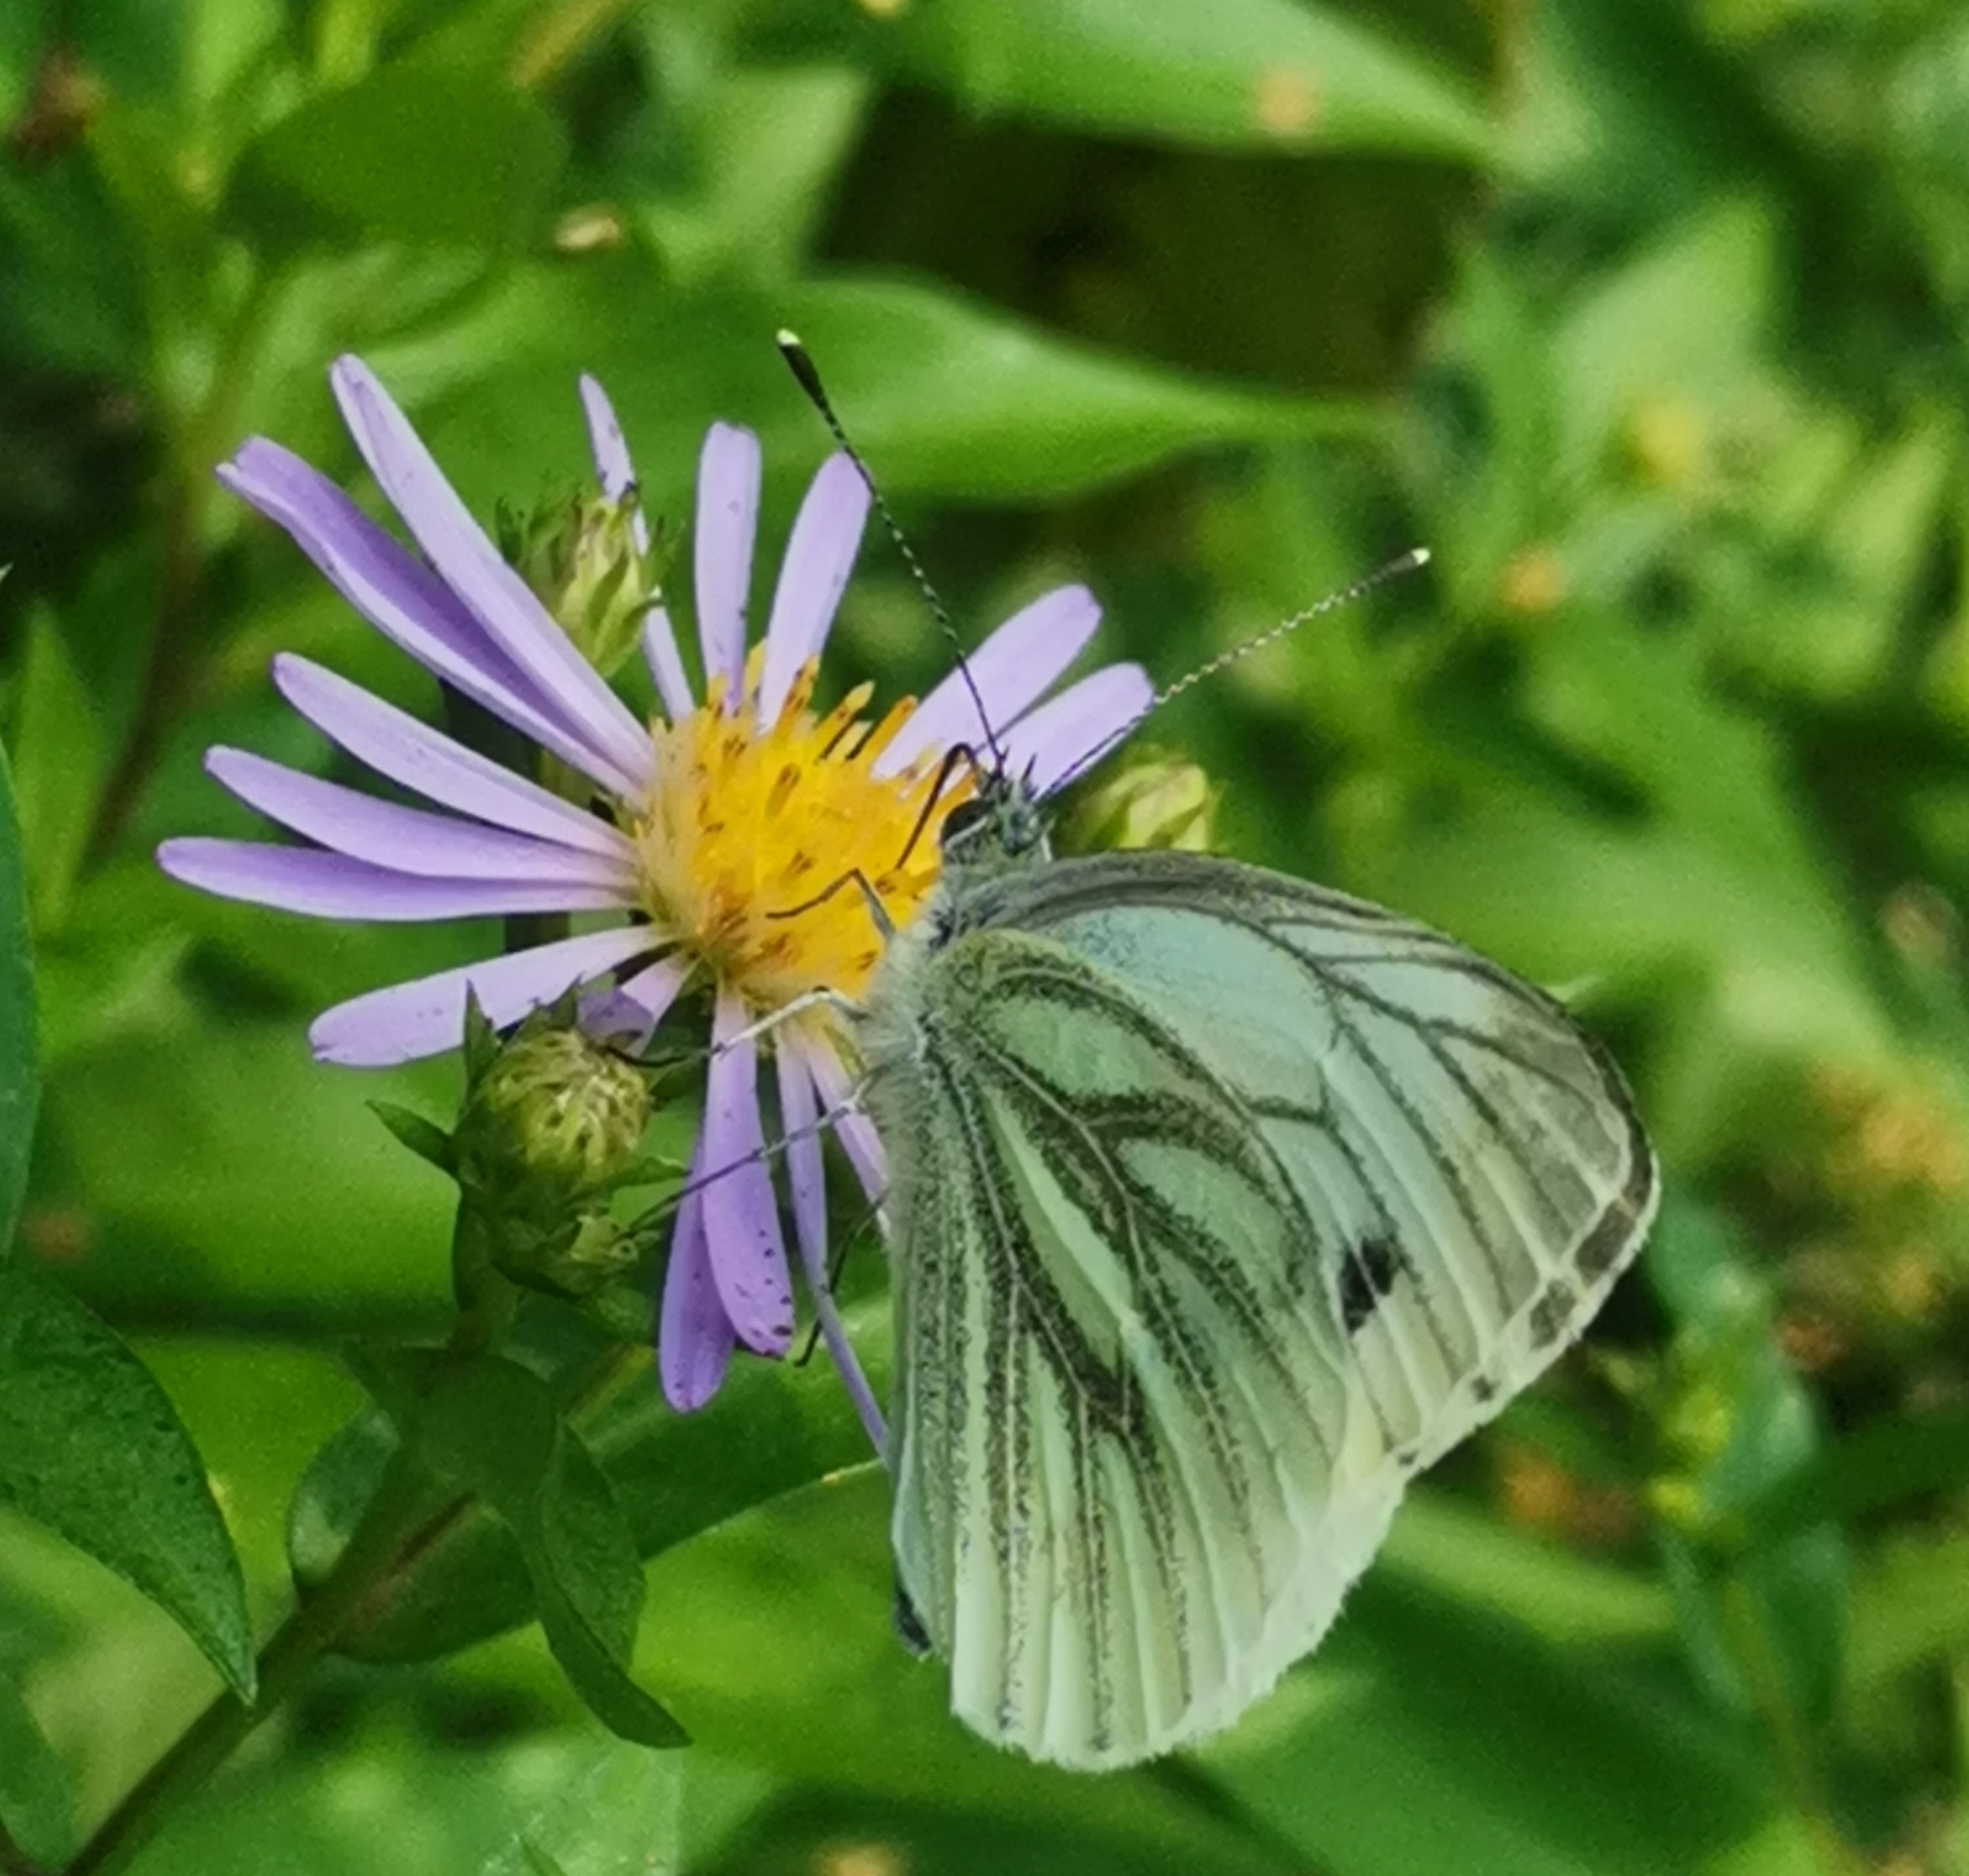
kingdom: Animalia
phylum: Arthropoda
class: Insecta
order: Lepidoptera
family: Pieridae
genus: Pieris
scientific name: Pieris napi
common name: Green-veined white
